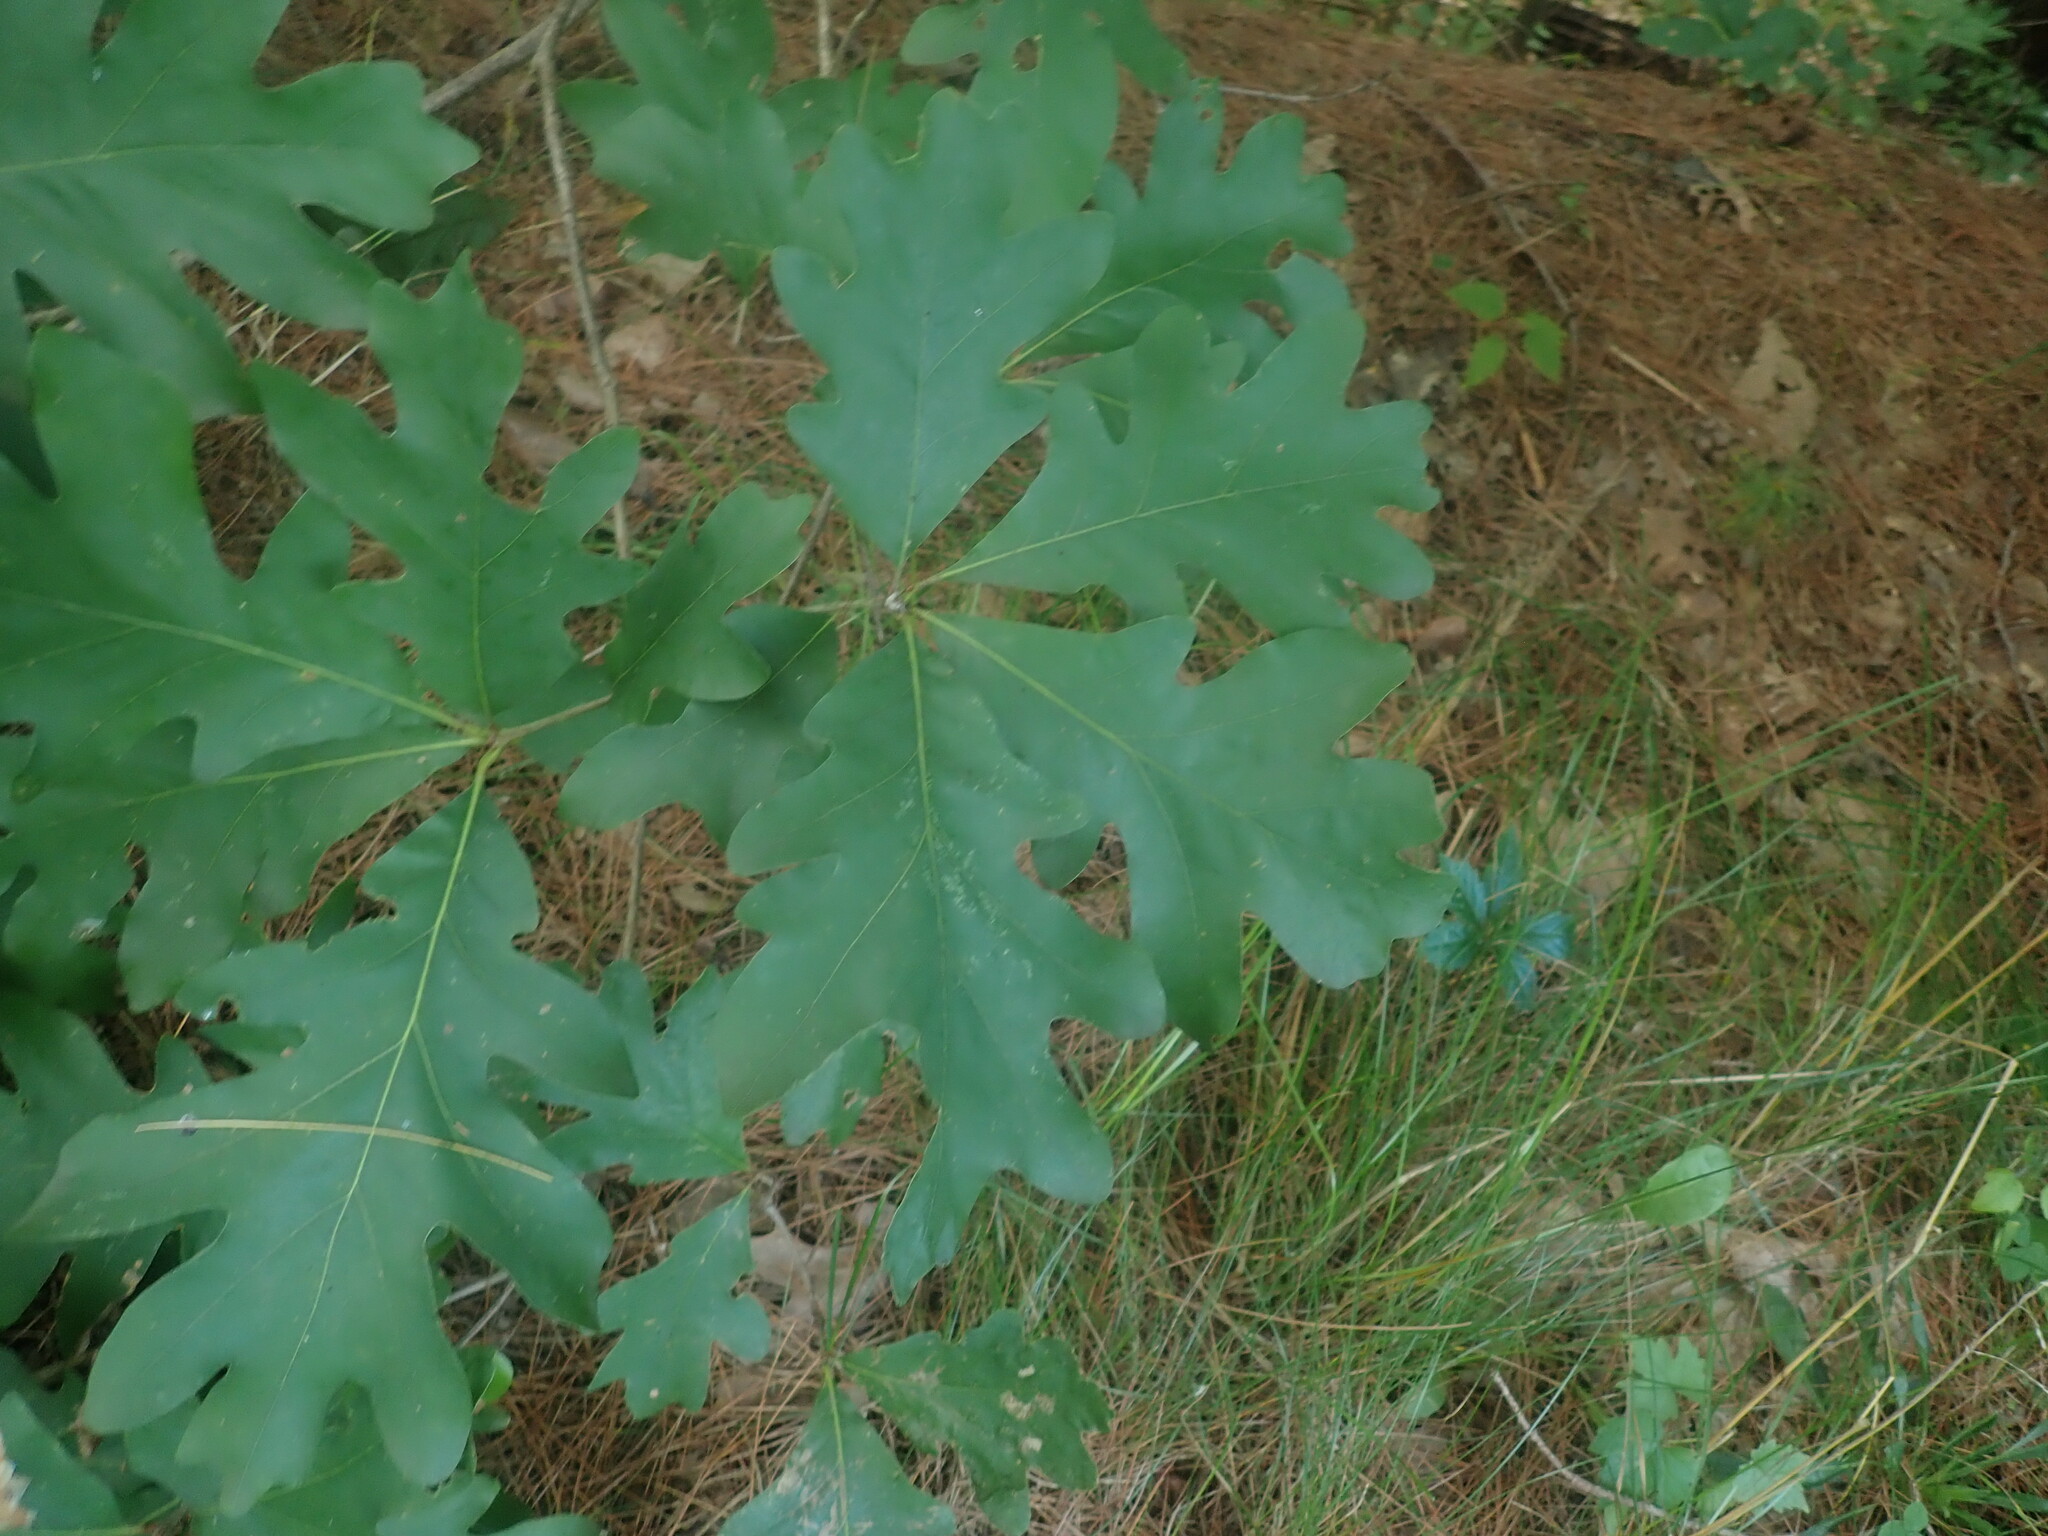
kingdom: Plantae
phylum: Tracheophyta
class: Magnoliopsida
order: Fagales
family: Fagaceae
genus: Quercus
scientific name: Quercus alba
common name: White oak
